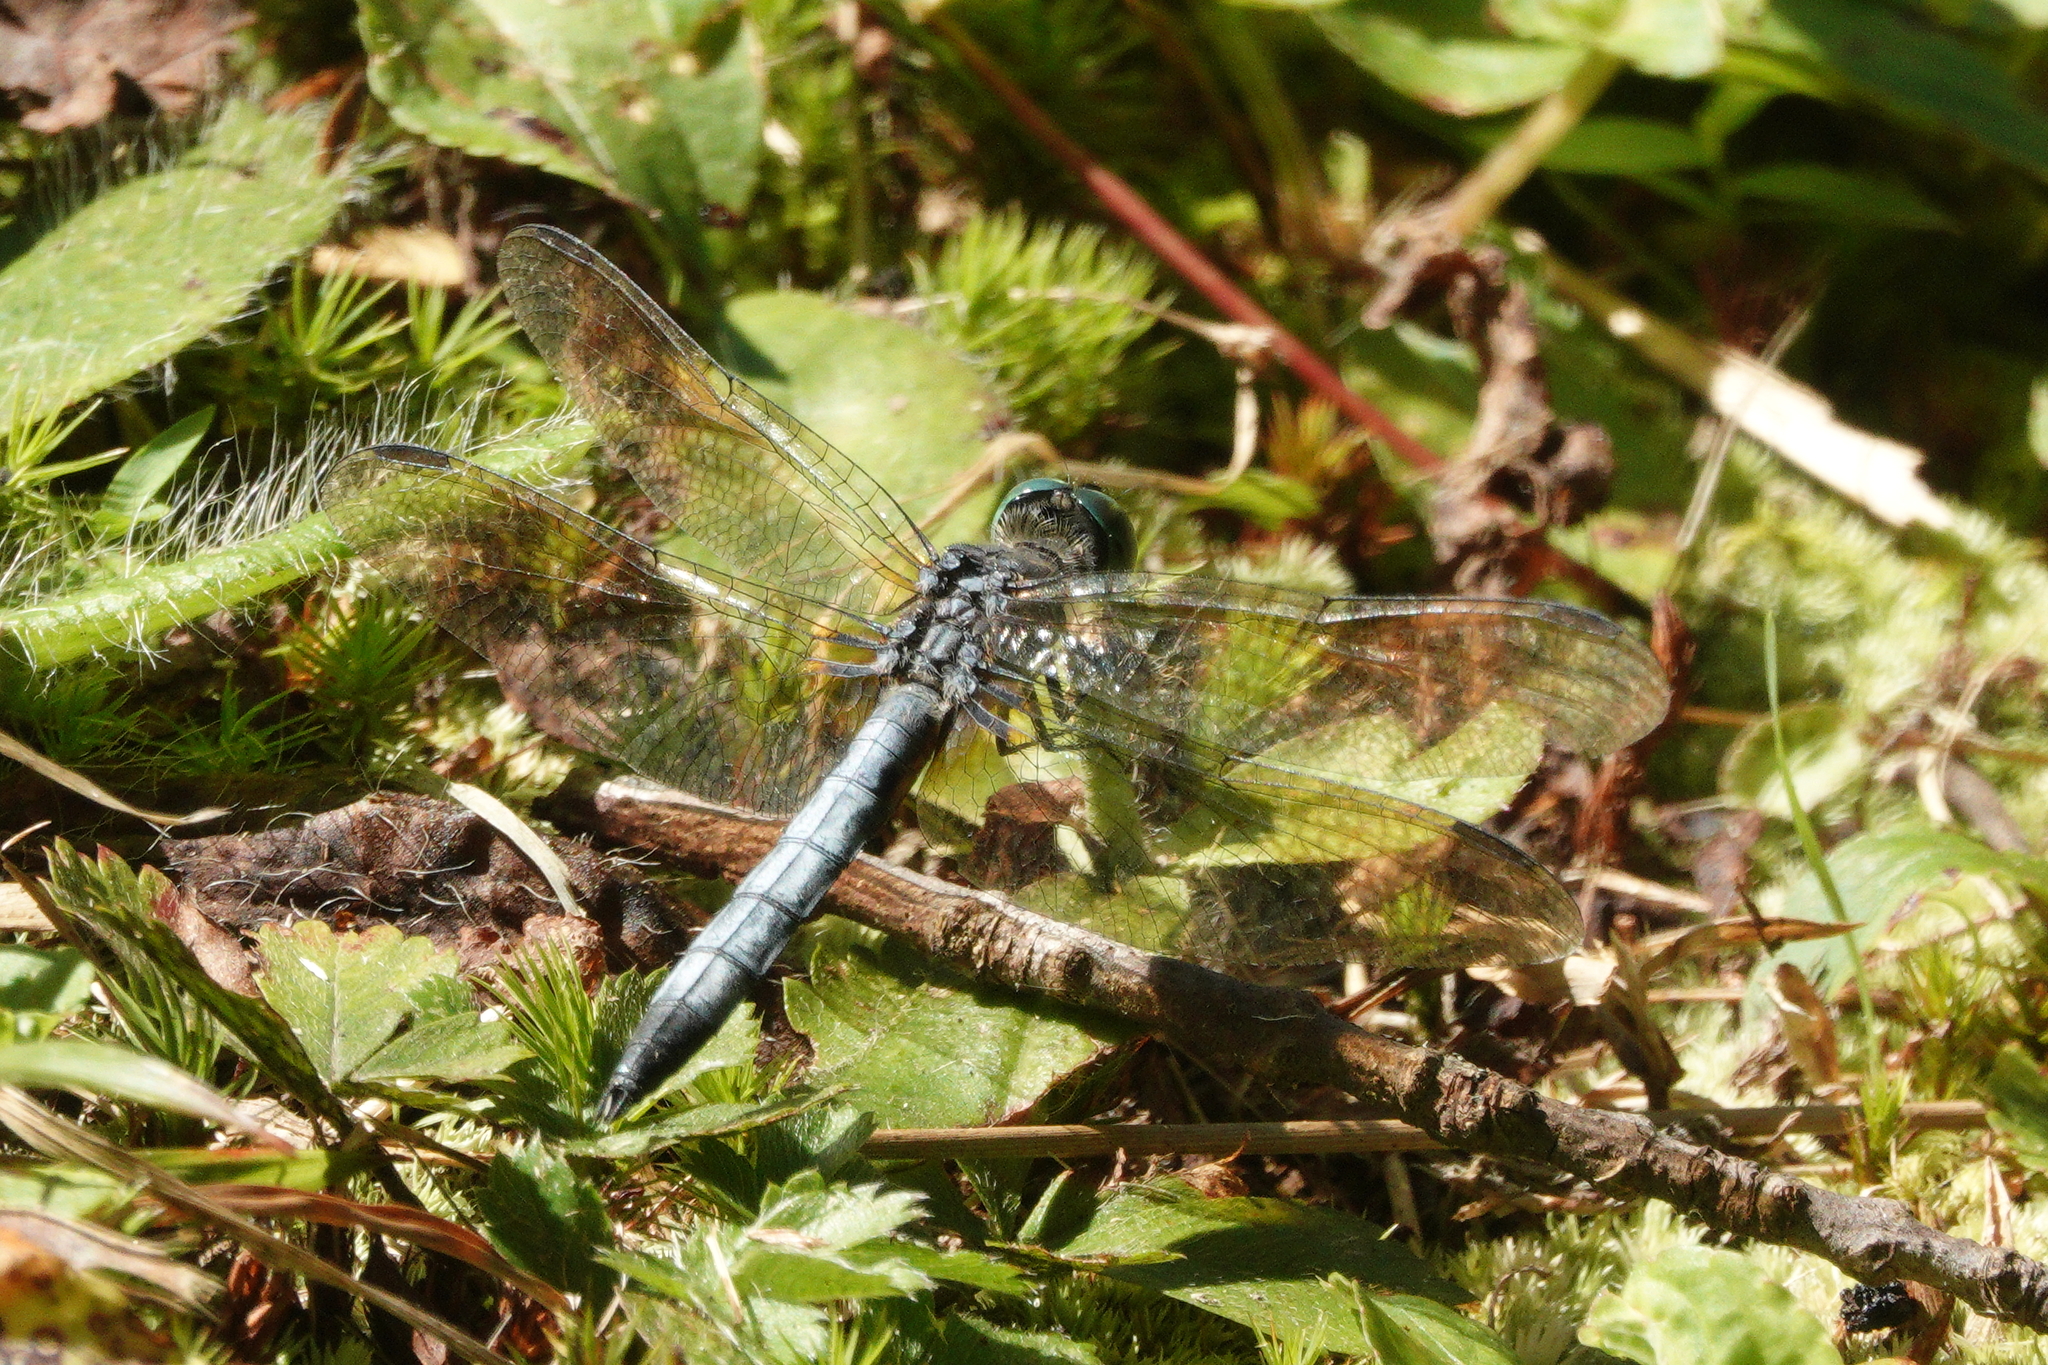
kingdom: Animalia
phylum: Arthropoda
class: Insecta
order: Odonata
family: Libellulidae
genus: Pachydiplax
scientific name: Pachydiplax longipennis
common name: Blue dasher
